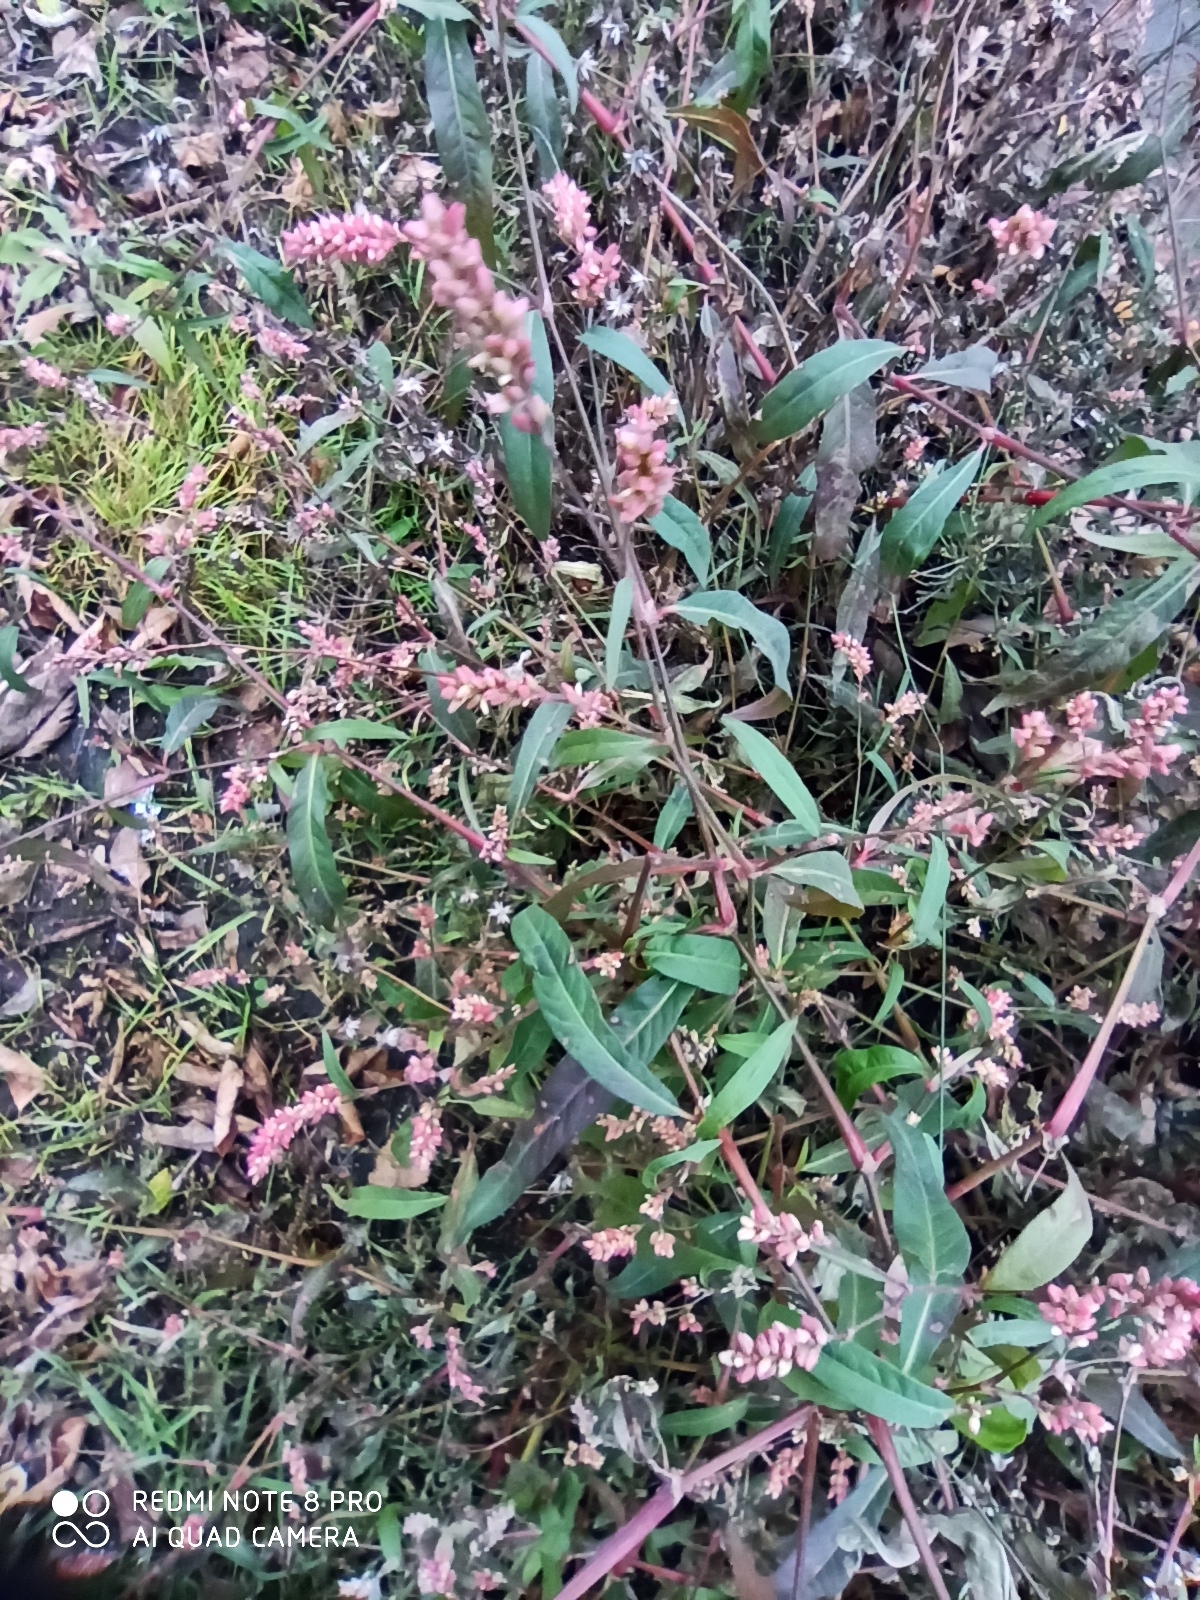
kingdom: Plantae
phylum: Tracheophyta
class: Magnoliopsida
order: Caryophyllales
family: Polygonaceae
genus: Persicaria
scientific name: Persicaria maculosa
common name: Redshank
